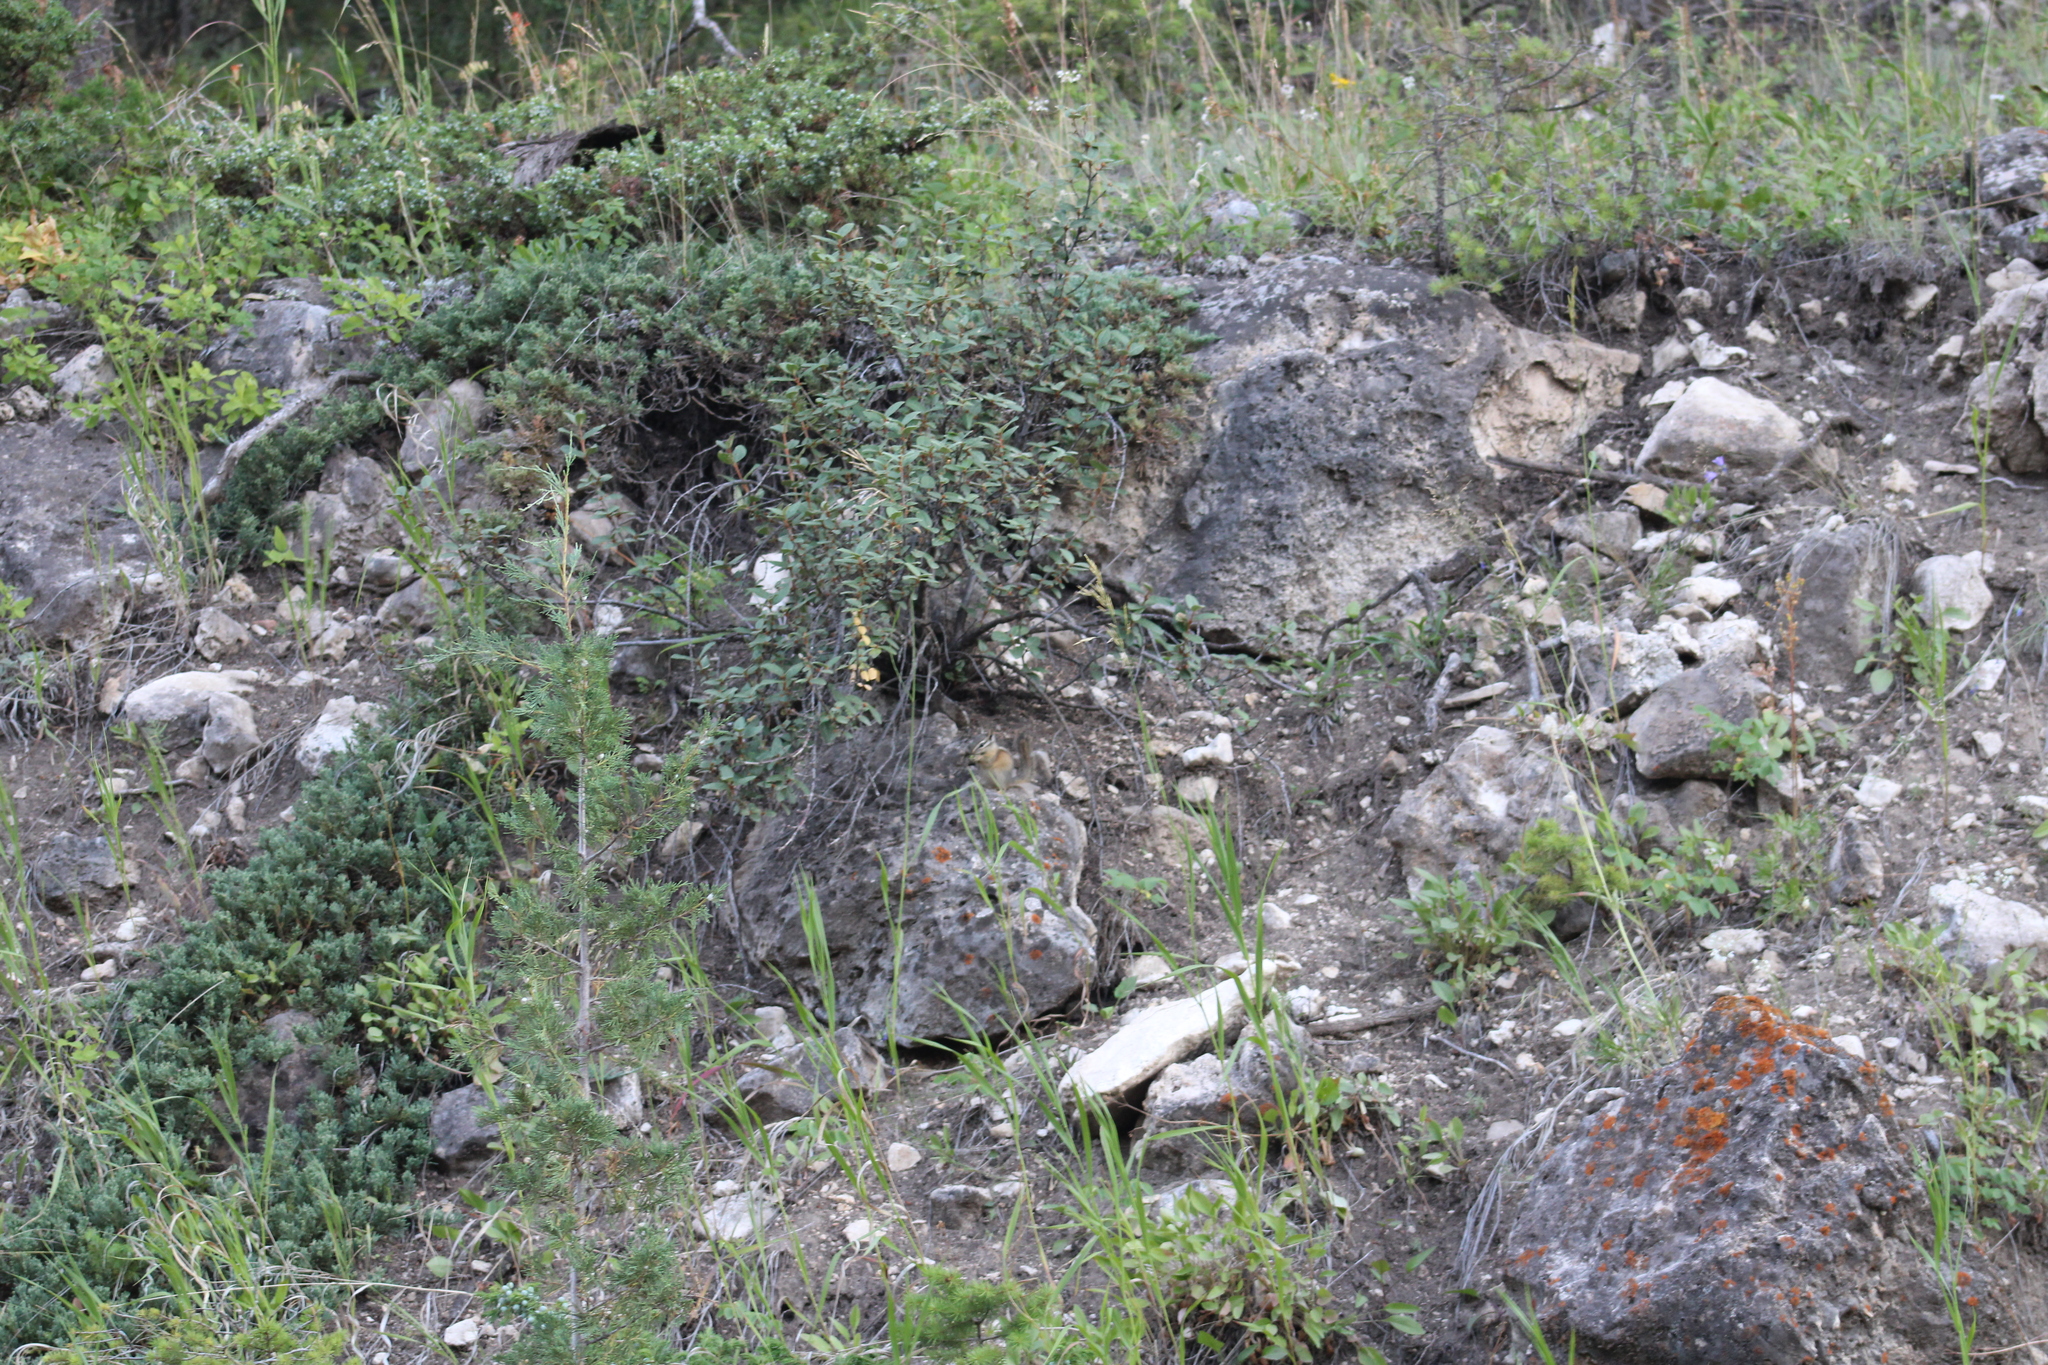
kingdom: Animalia
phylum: Chordata
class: Mammalia
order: Rodentia
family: Sciuridae
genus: Tamias
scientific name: Tamias minimus
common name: Least chipmunk
